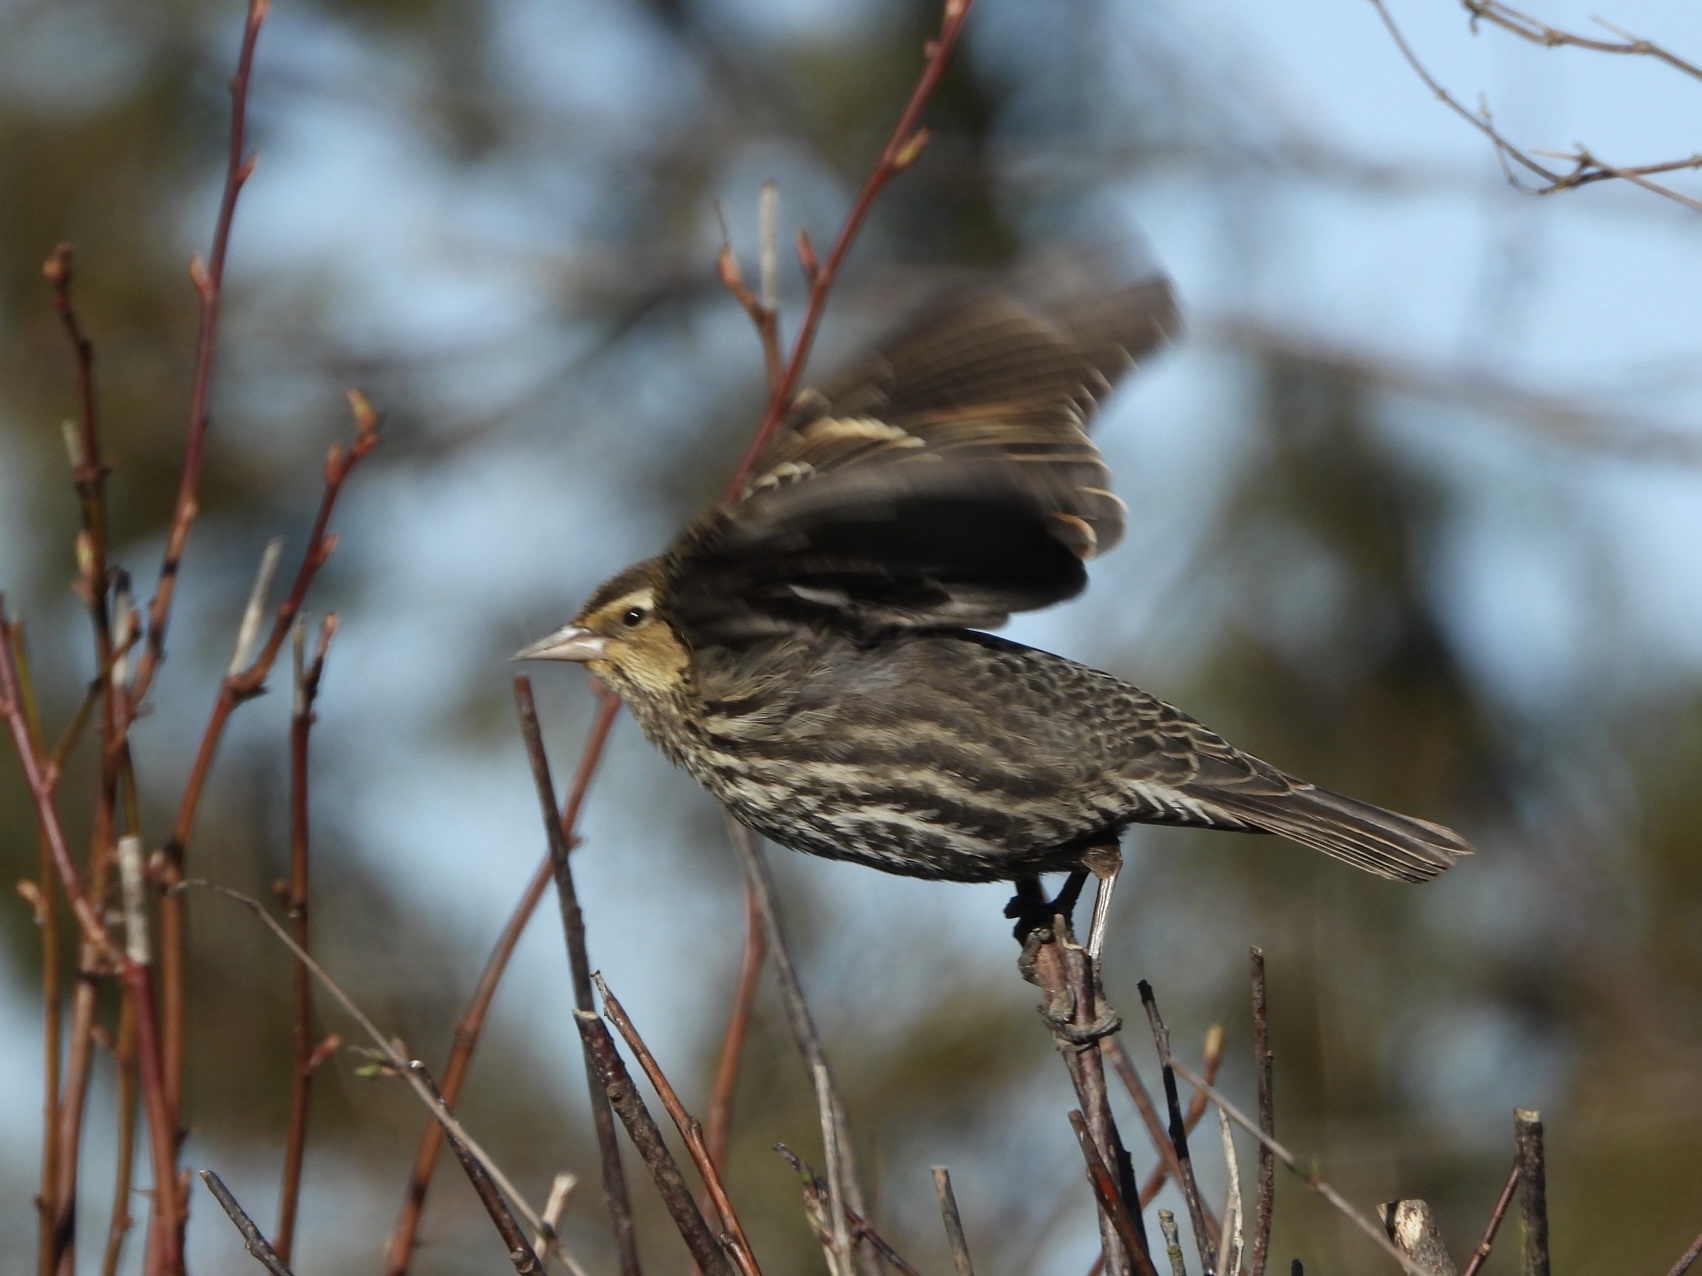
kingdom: Animalia
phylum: Chordata
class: Aves
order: Passeriformes
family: Icteridae
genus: Agelaius
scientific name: Agelaius phoeniceus
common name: Red-winged blackbird
